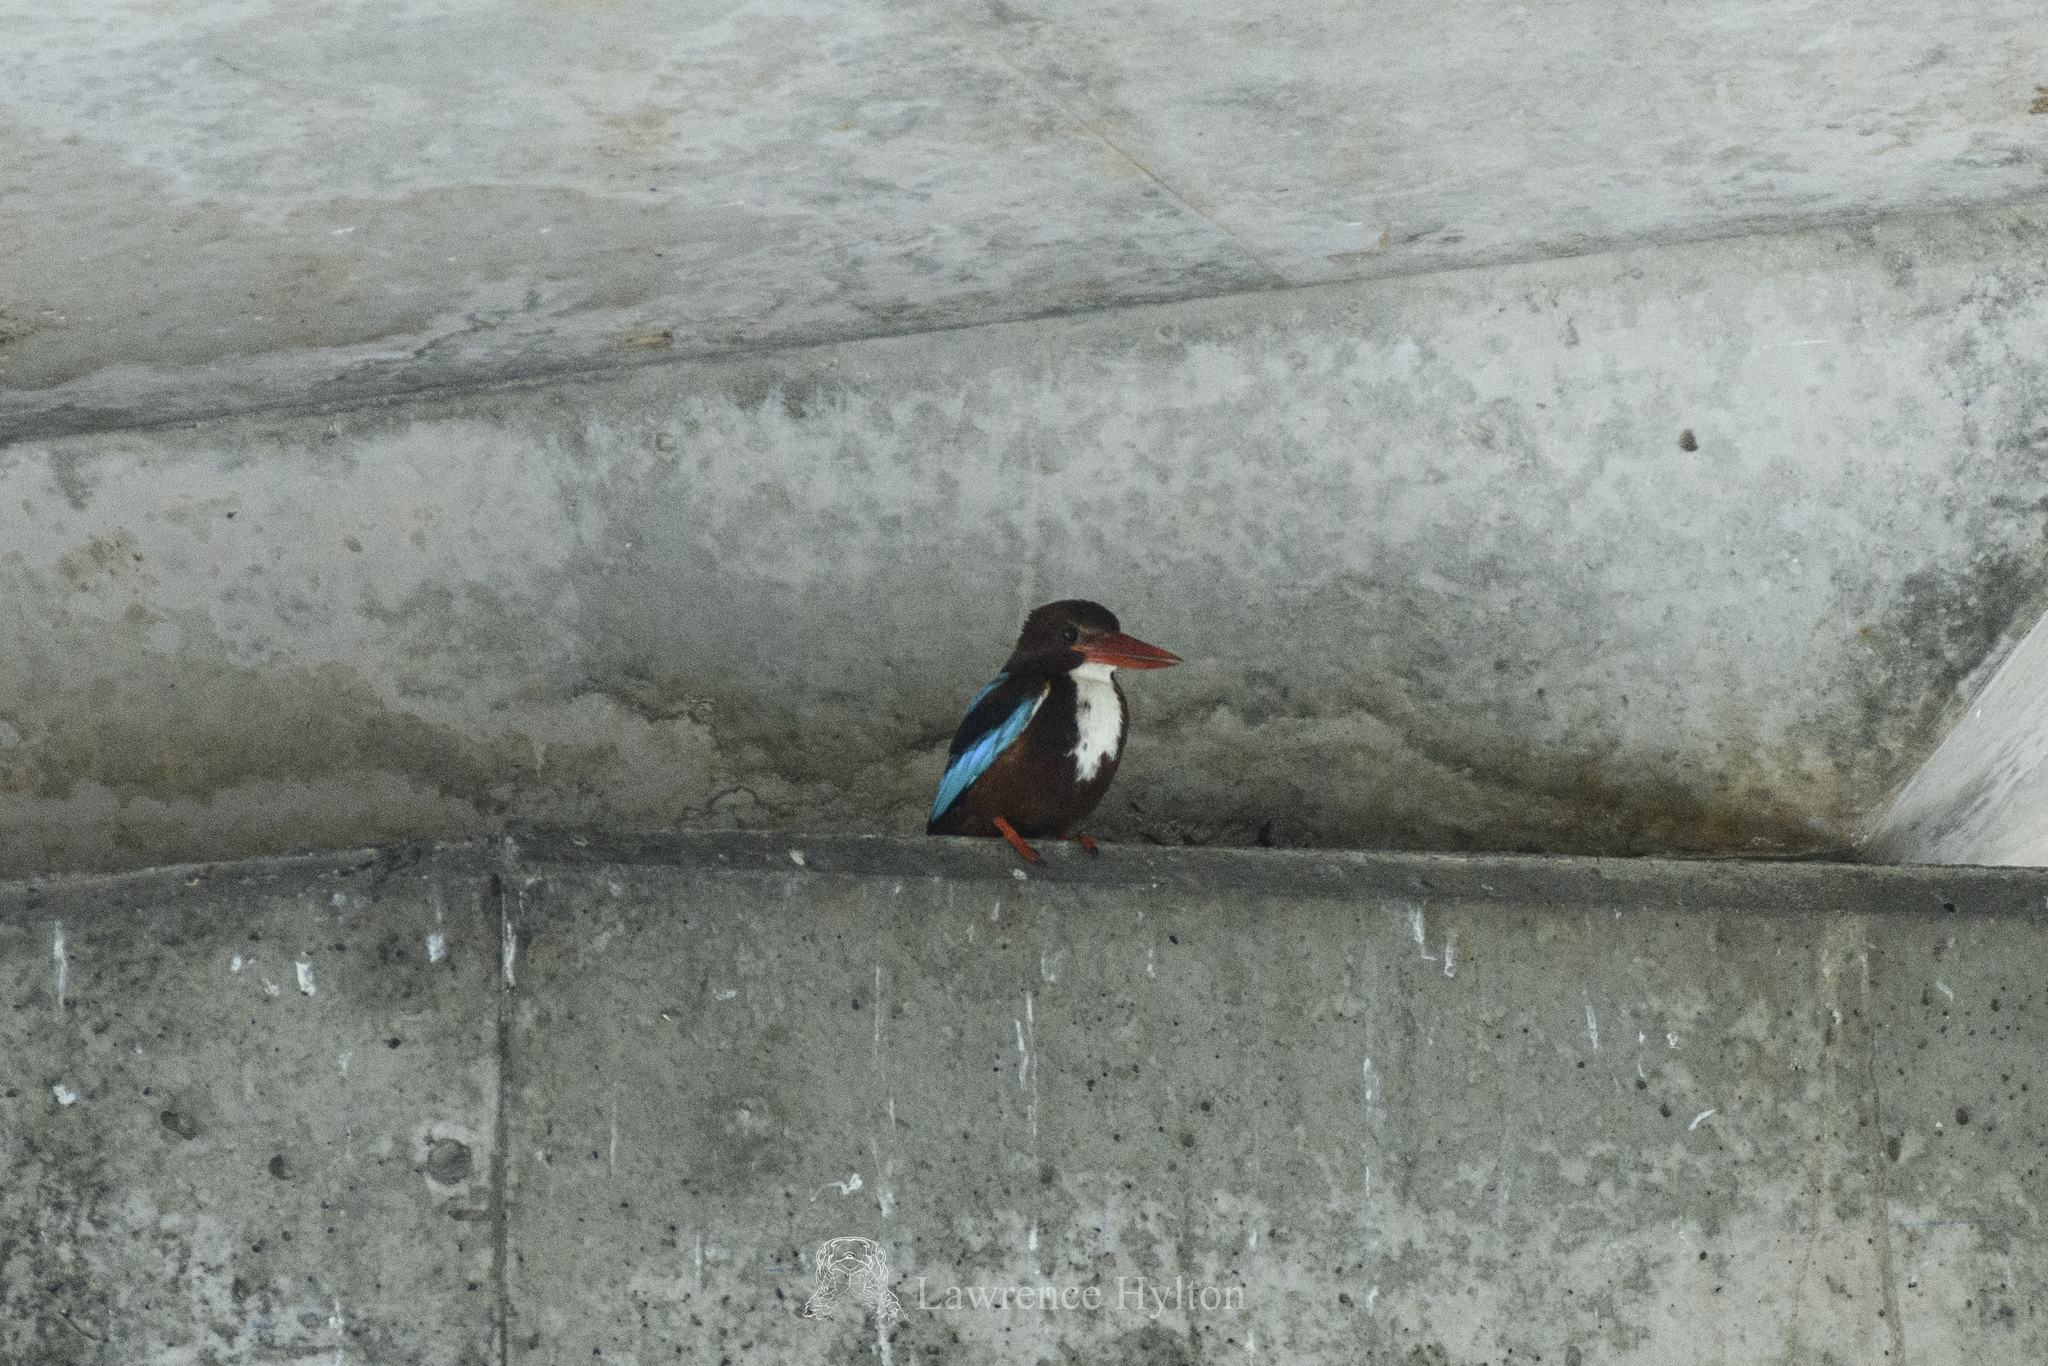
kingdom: Animalia
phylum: Chordata
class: Aves
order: Coraciiformes
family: Alcedinidae
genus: Halcyon
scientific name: Halcyon smyrnensis
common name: White-throated kingfisher
